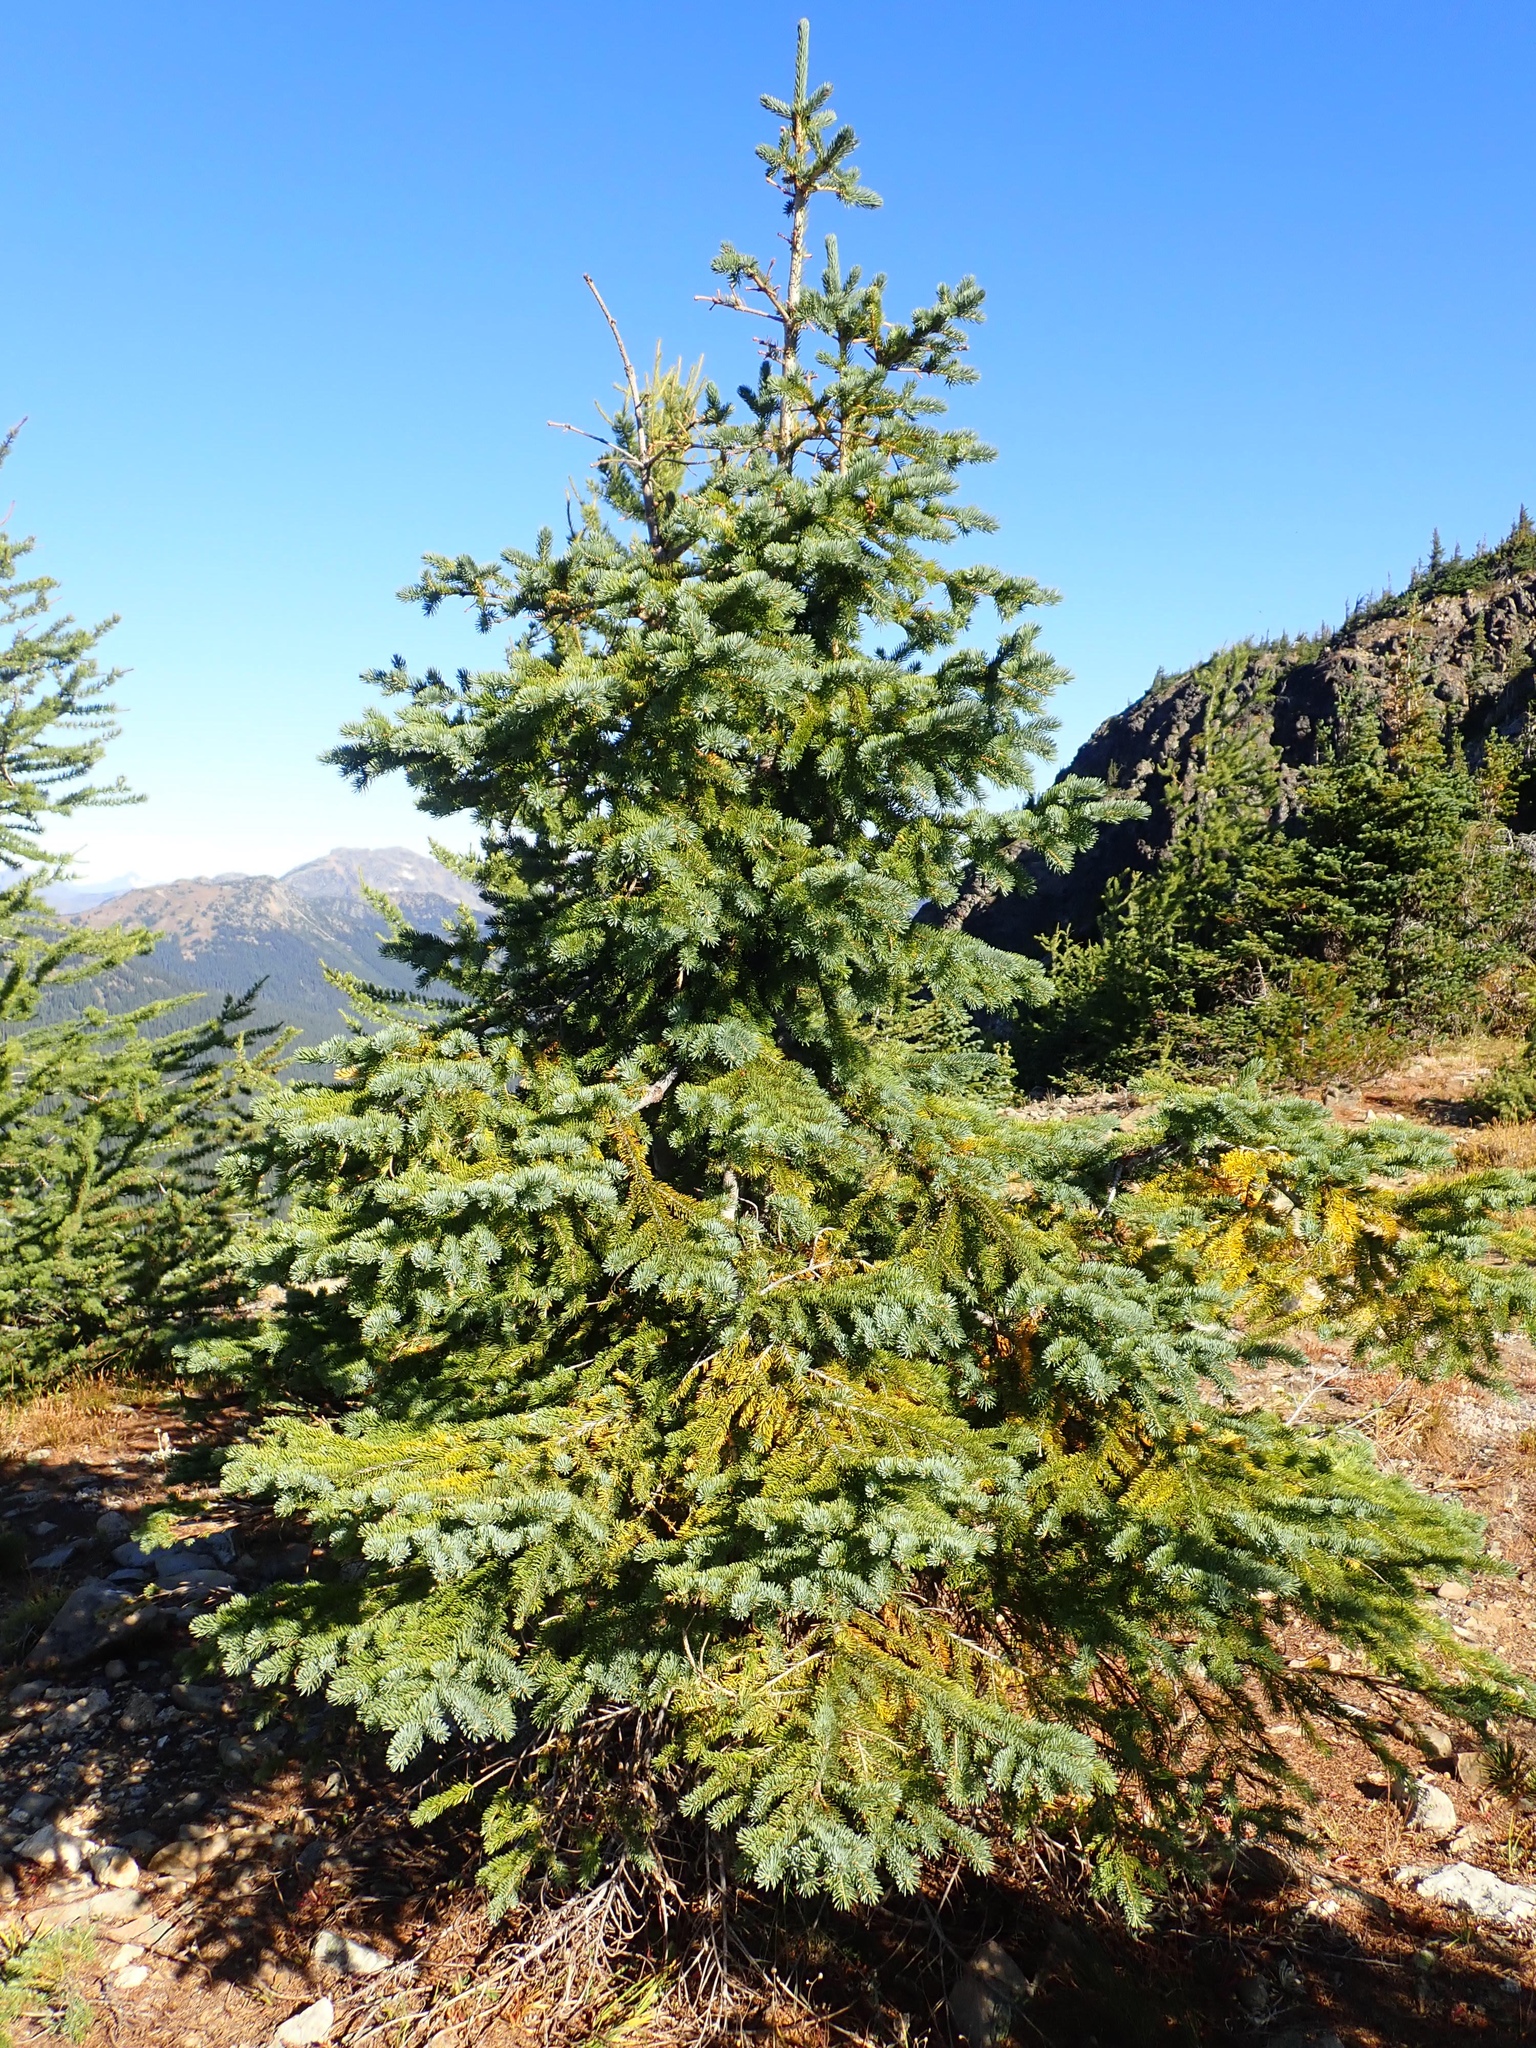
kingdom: Plantae
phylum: Tracheophyta
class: Pinopsida
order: Pinales
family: Pinaceae
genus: Picea
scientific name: Picea engelmannii
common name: Engelmann spruce
